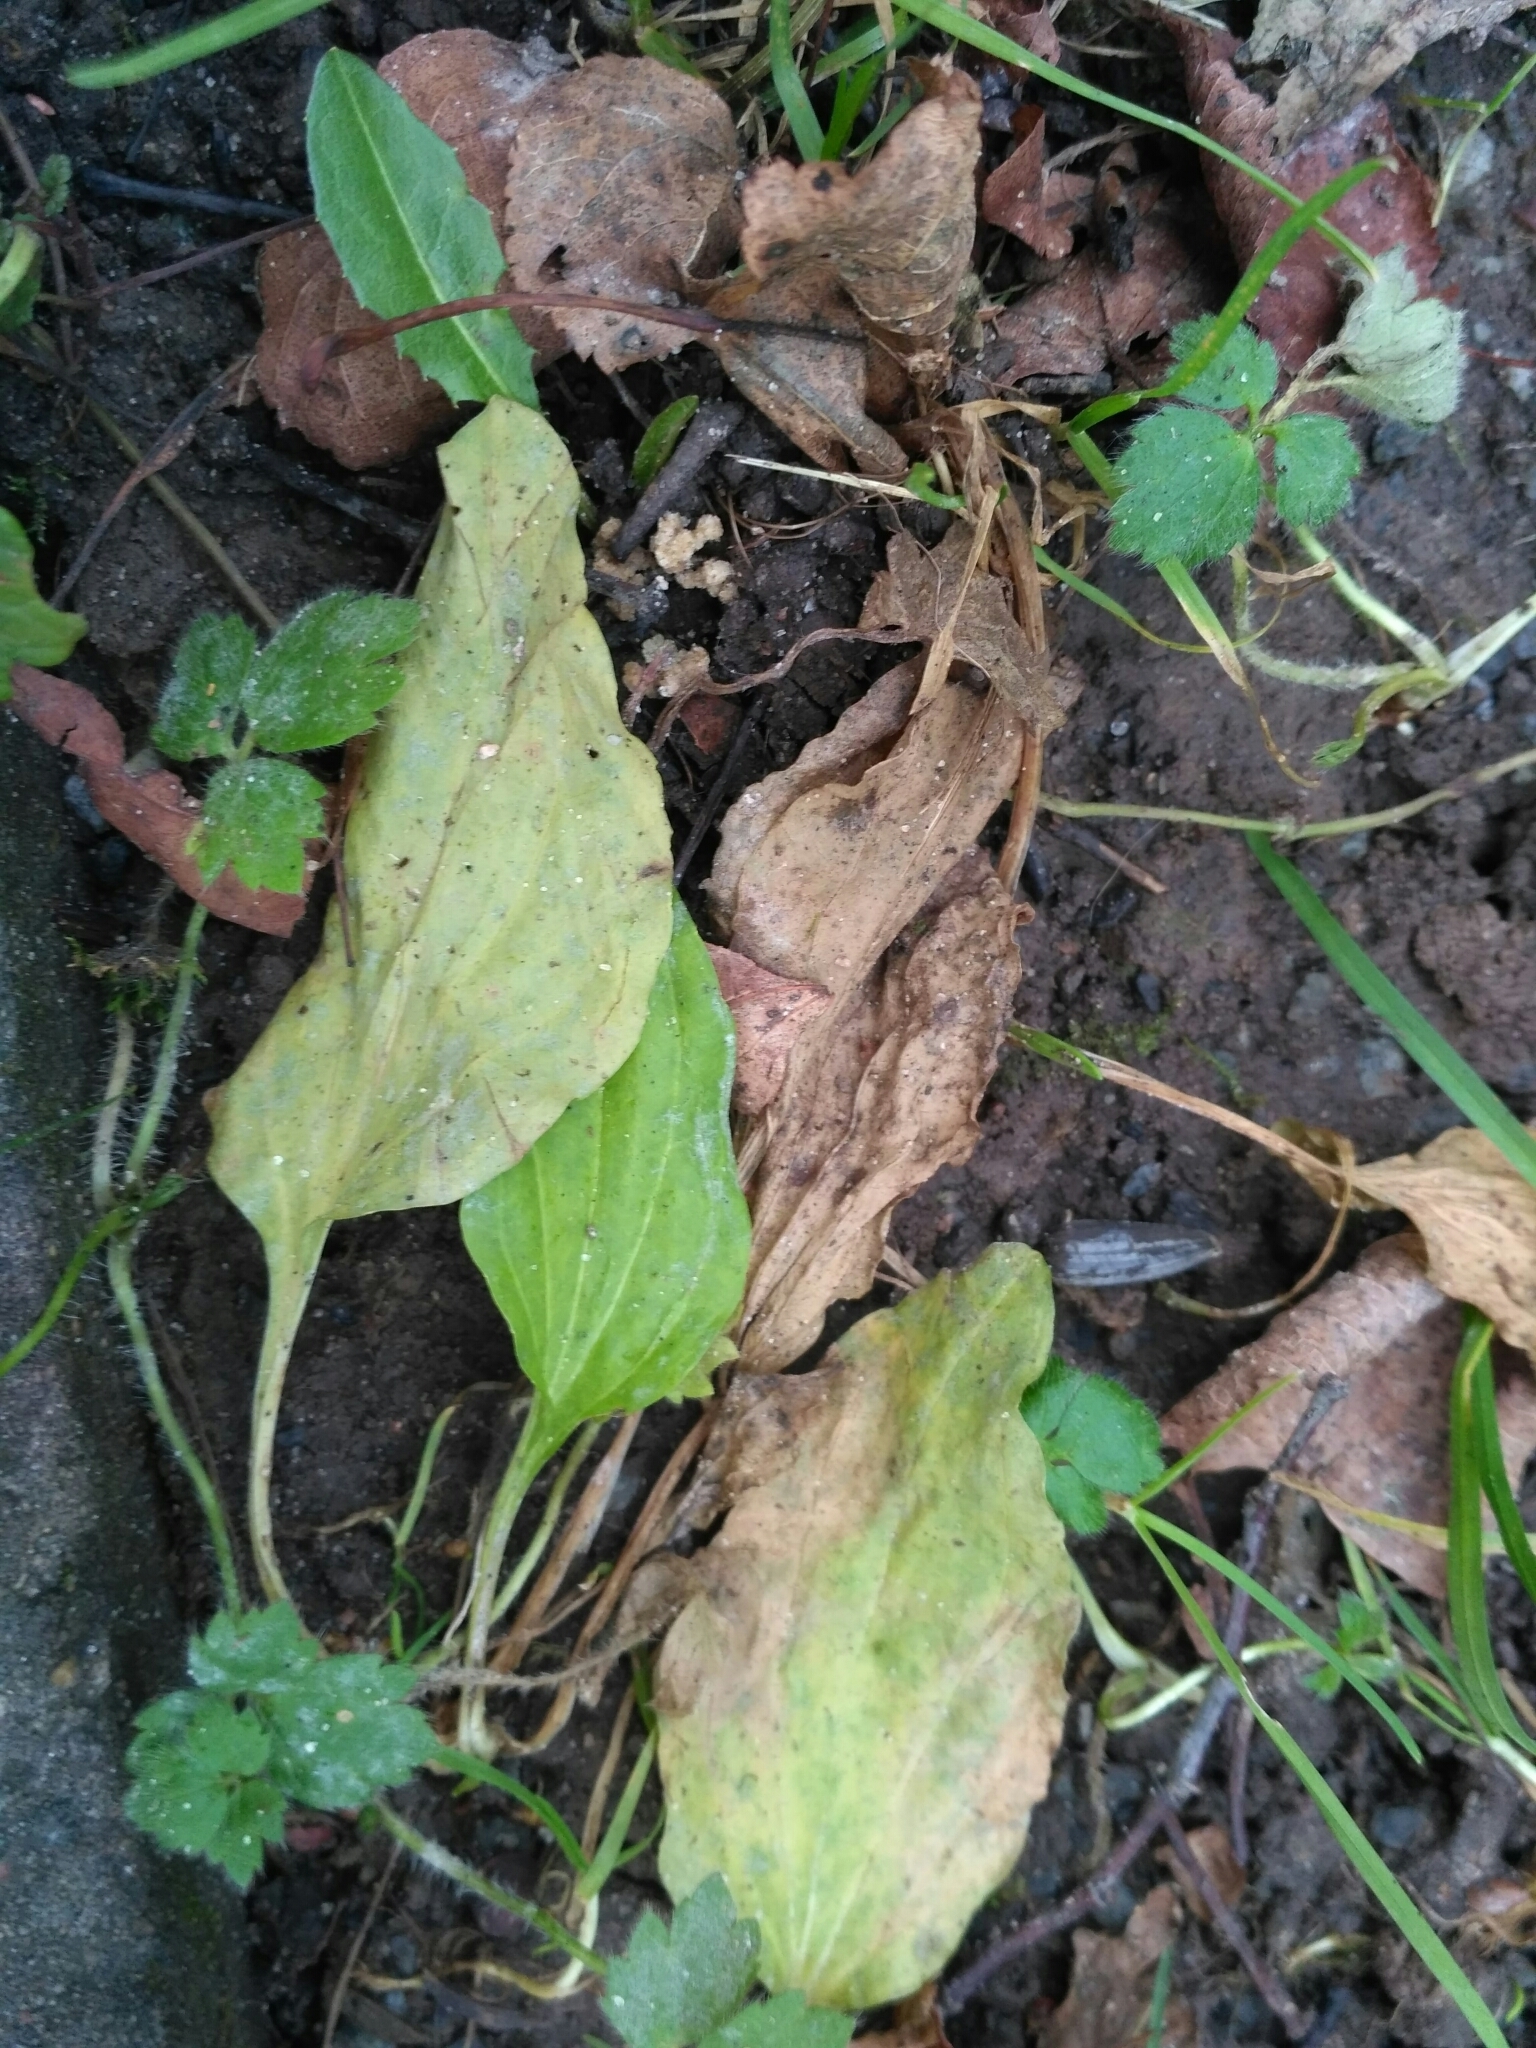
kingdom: Plantae
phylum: Tracheophyta
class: Magnoliopsida
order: Lamiales
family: Plantaginaceae
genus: Plantago
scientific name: Plantago major
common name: Common plantain
